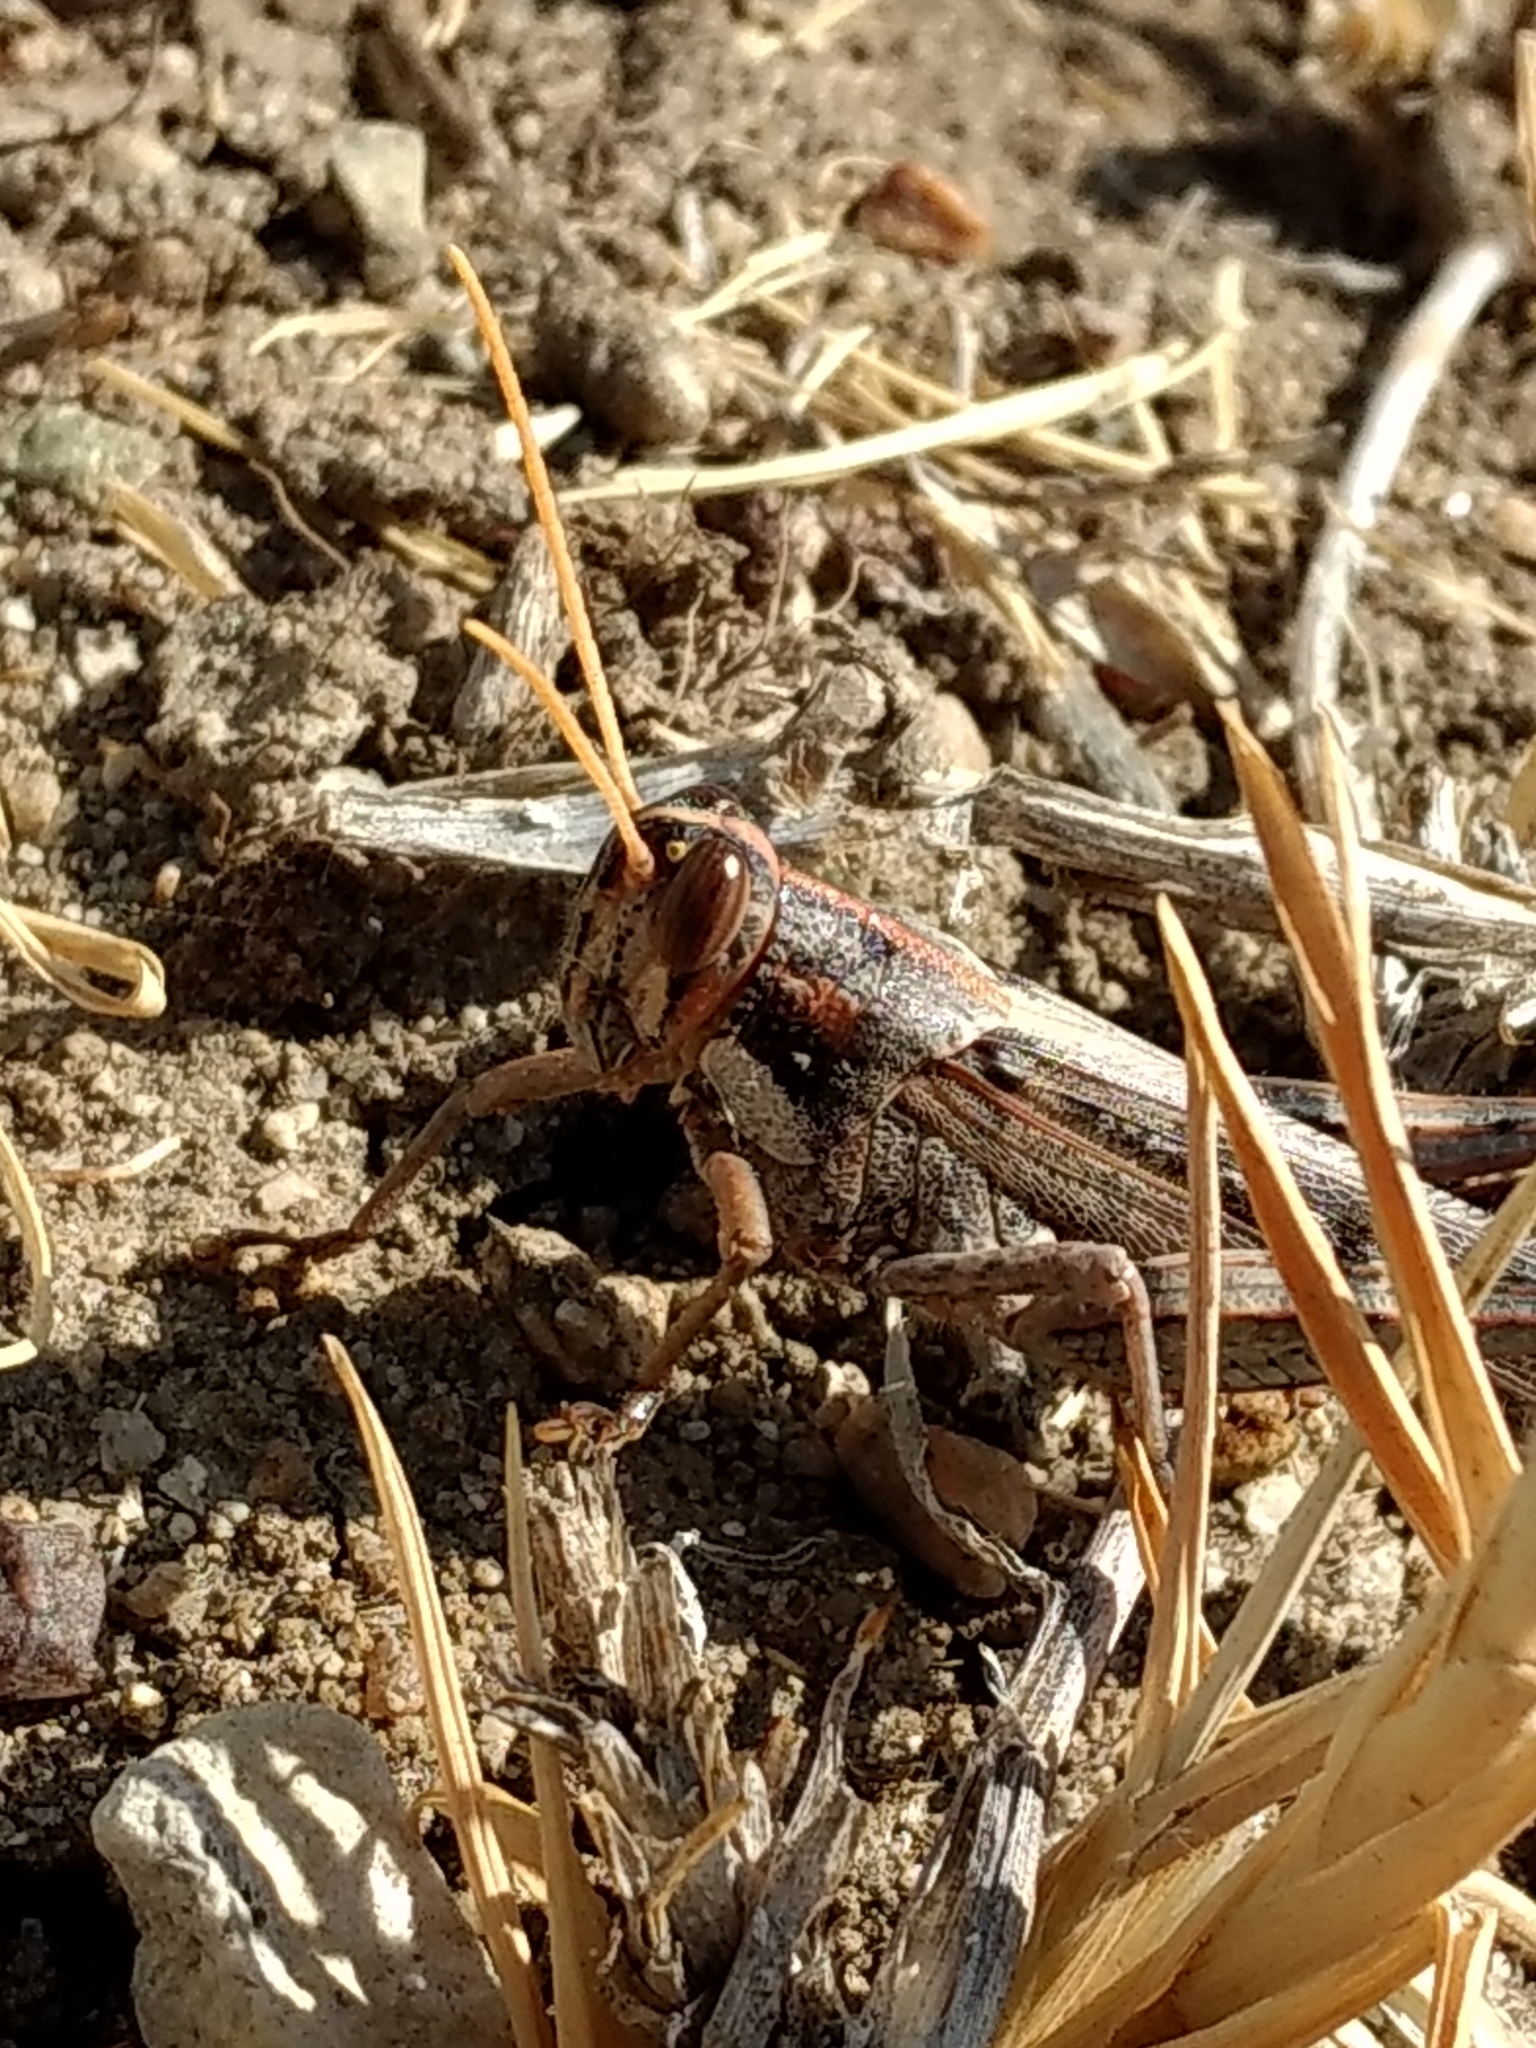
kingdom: Animalia
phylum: Arthropoda
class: Insecta
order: Orthoptera
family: Acrididae
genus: Schistocerca
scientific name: Schistocerca nitens
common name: Vagrant grasshopper
